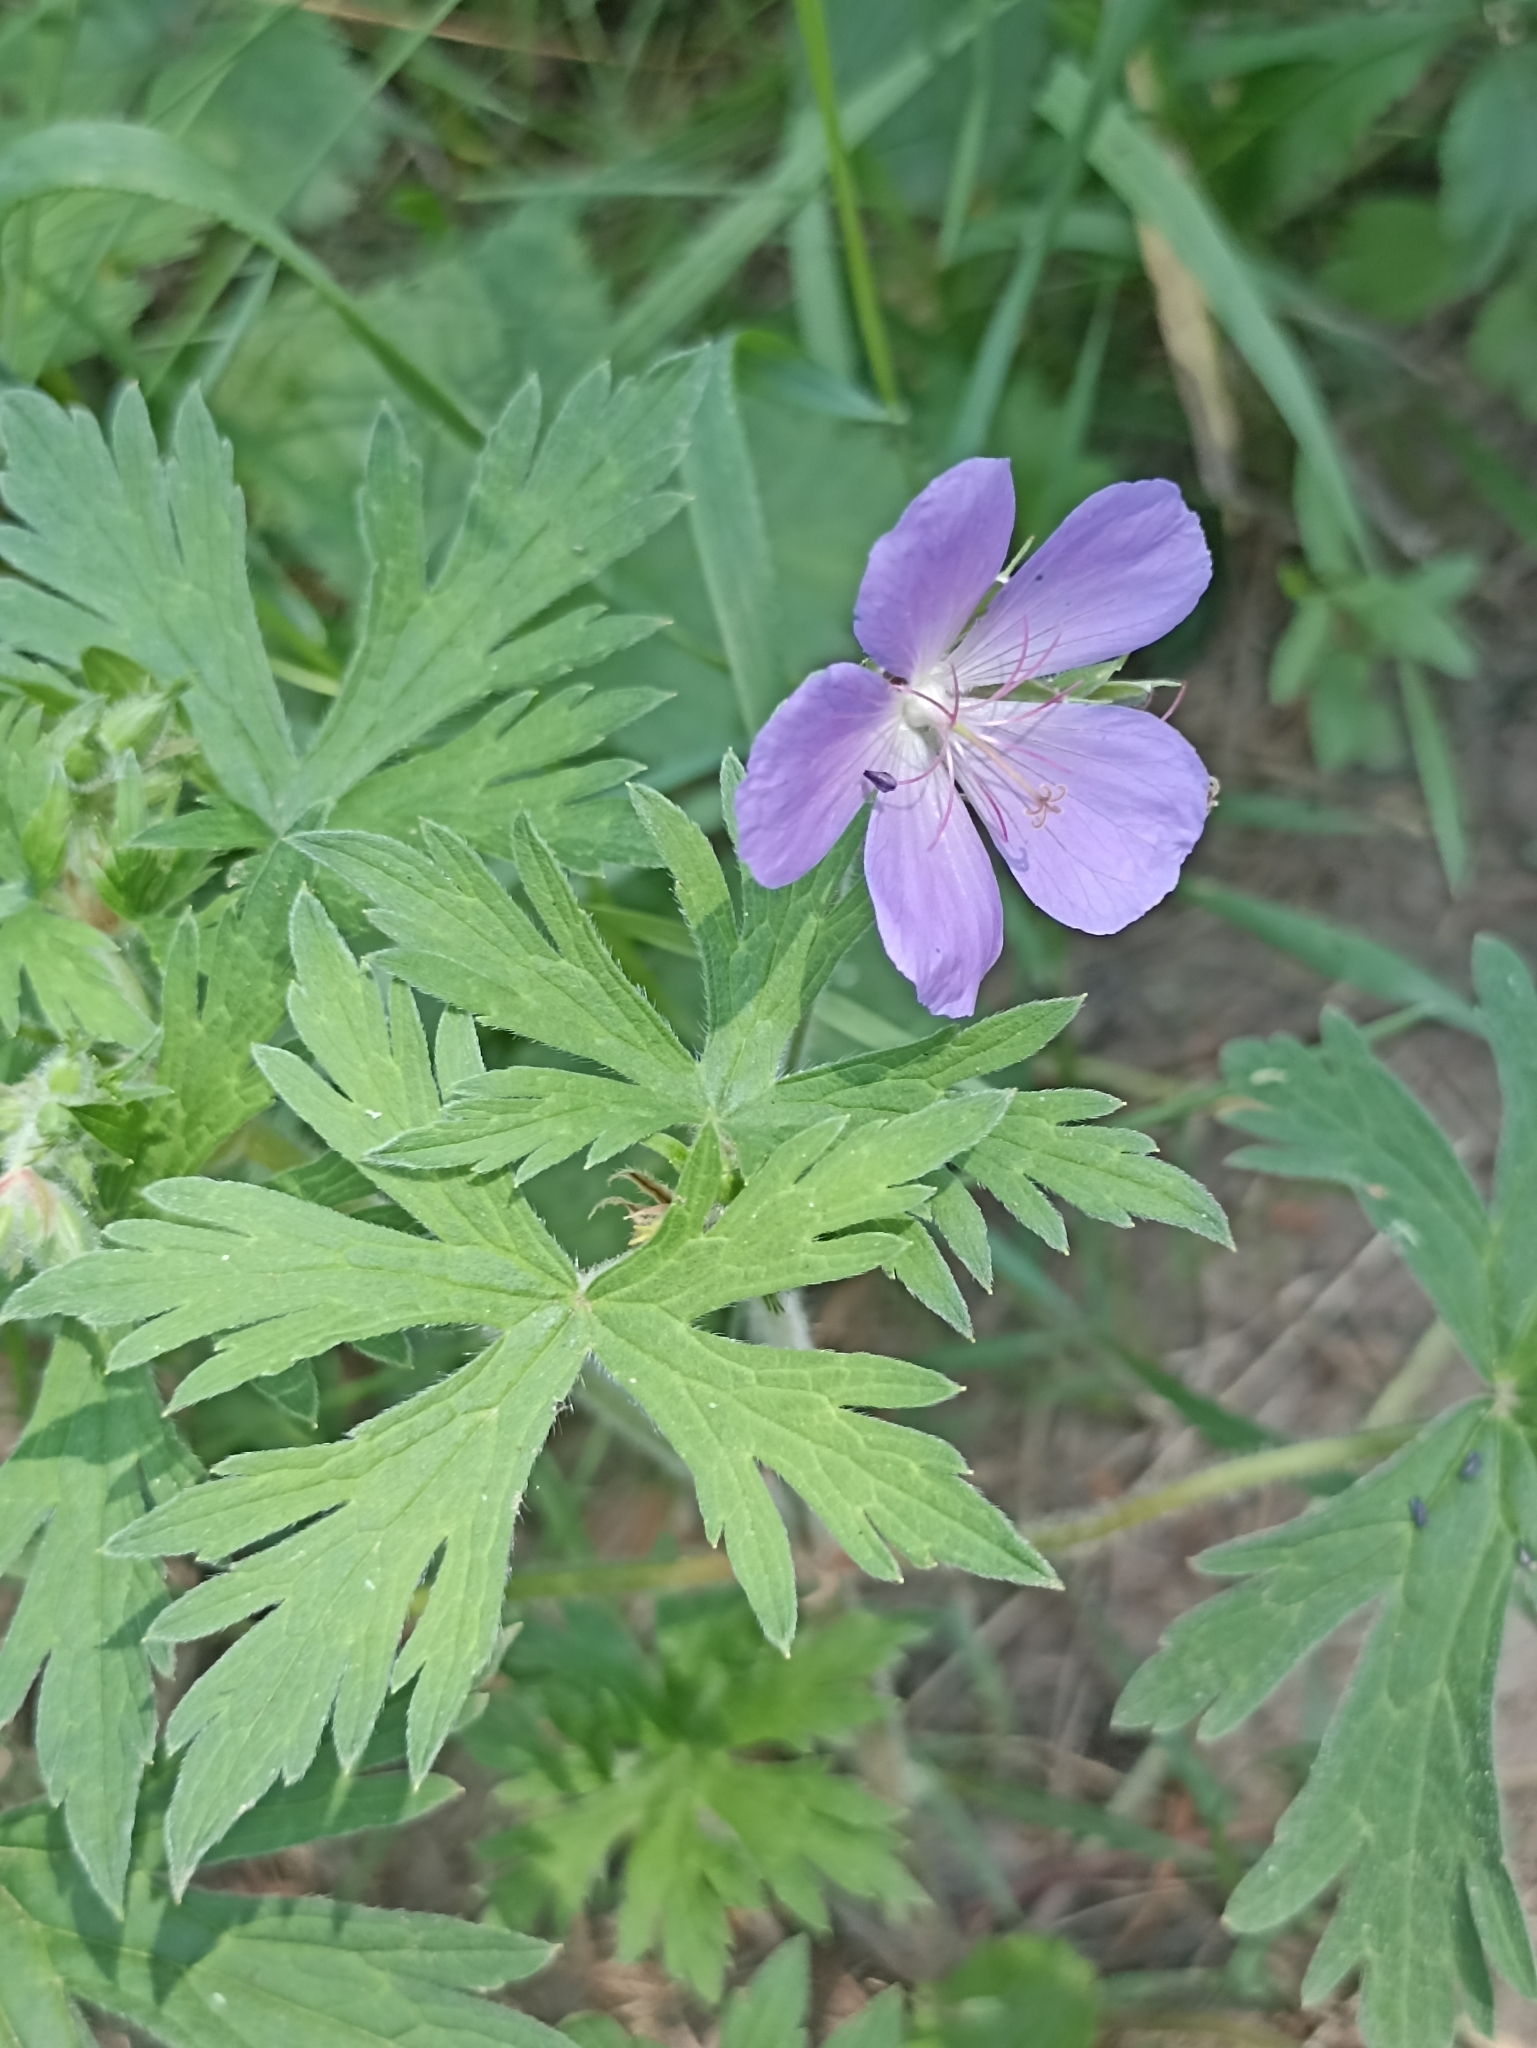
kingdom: Plantae
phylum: Tracheophyta
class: Magnoliopsida
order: Geraniales
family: Geraniaceae
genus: Geranium
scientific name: Geranium pratense
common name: Meadow crane's-bill
